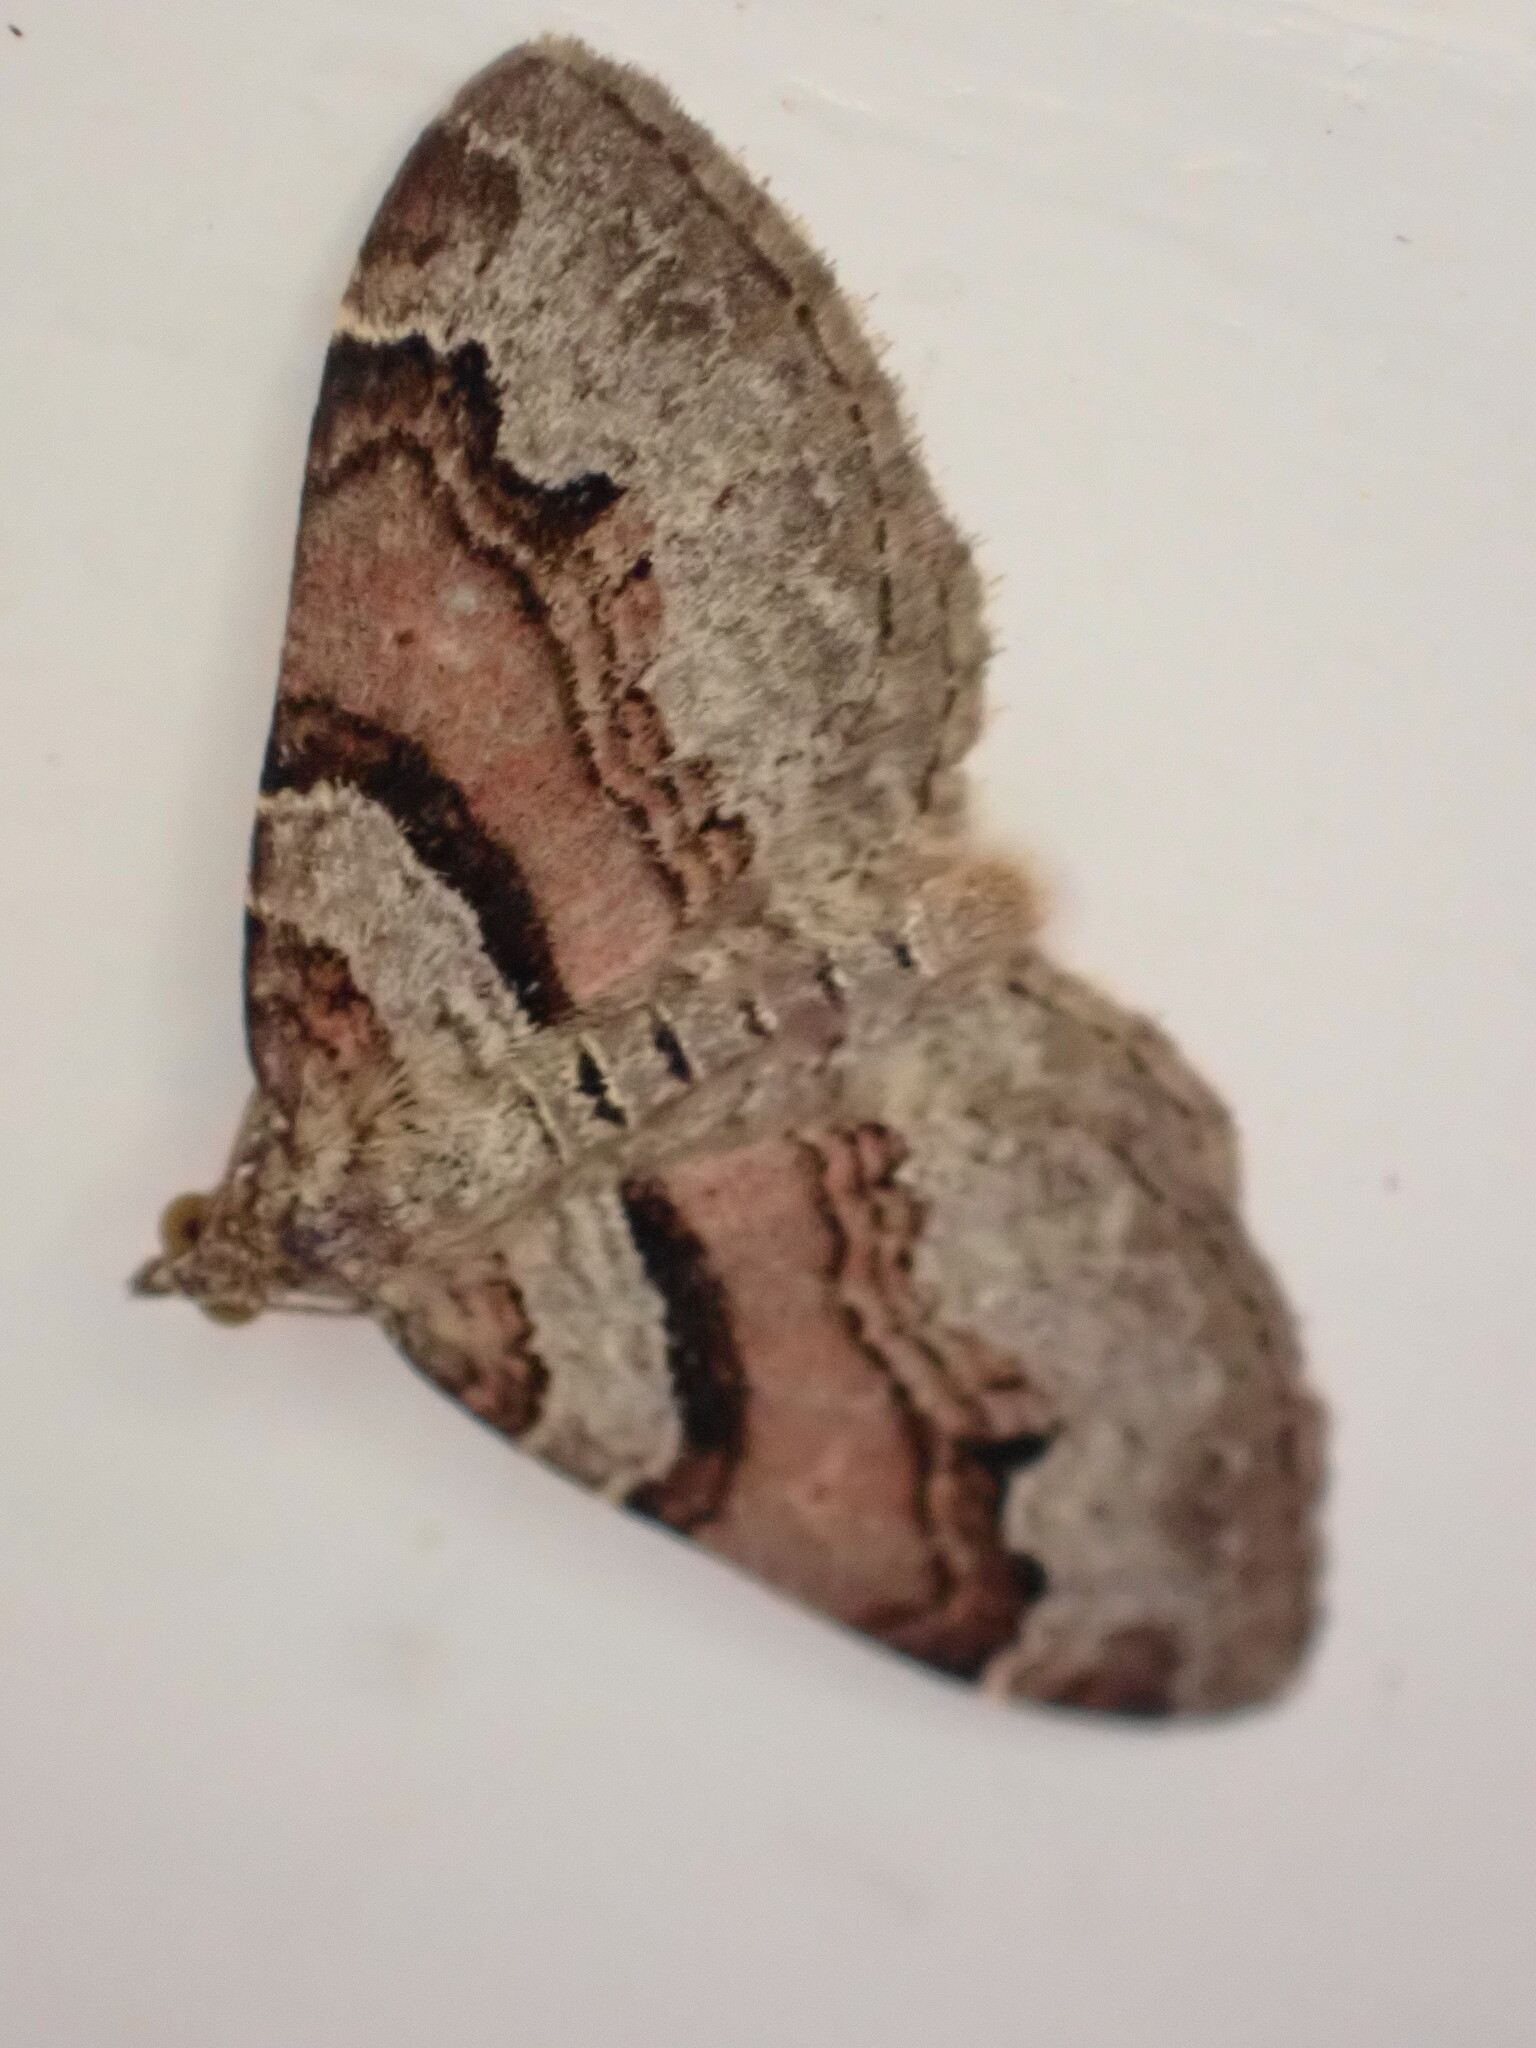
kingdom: Animalia
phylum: Arthropoda
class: Insecta
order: Lepidoptera
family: Geometridae
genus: Xanthorhoe
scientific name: Xanthorhoe designata
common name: Flame carpet
